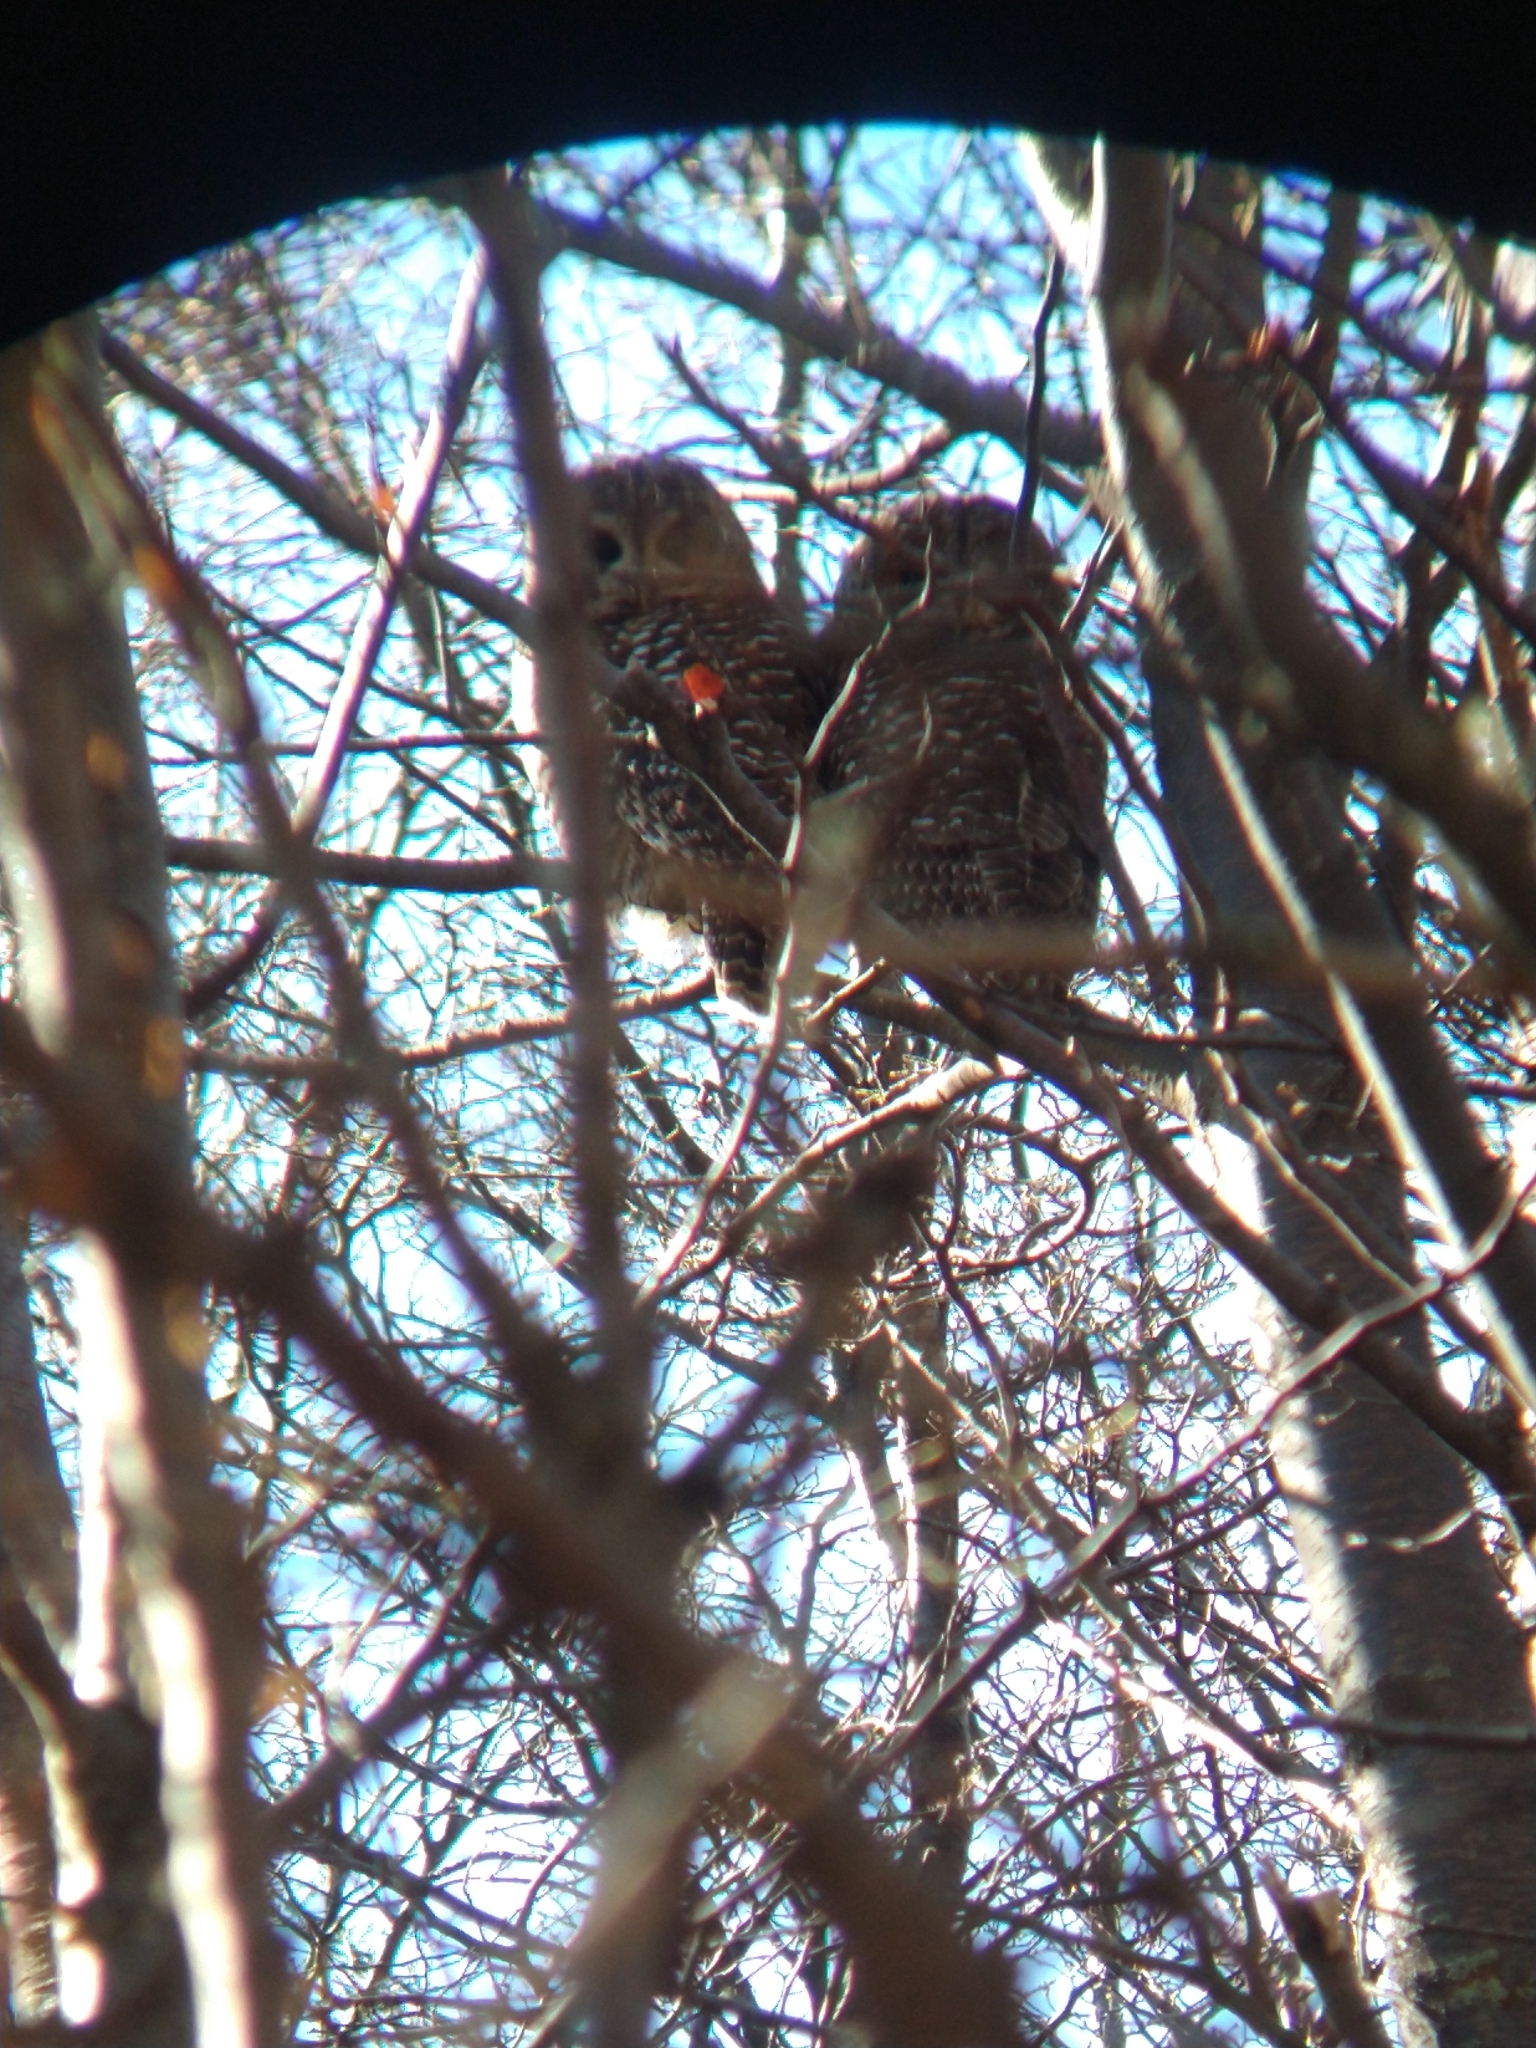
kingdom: Animalia
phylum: Chordata
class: Aves
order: Strigiformes
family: Strigidae
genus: Strix
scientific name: Strix rufipes
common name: Rufous-legged owl
